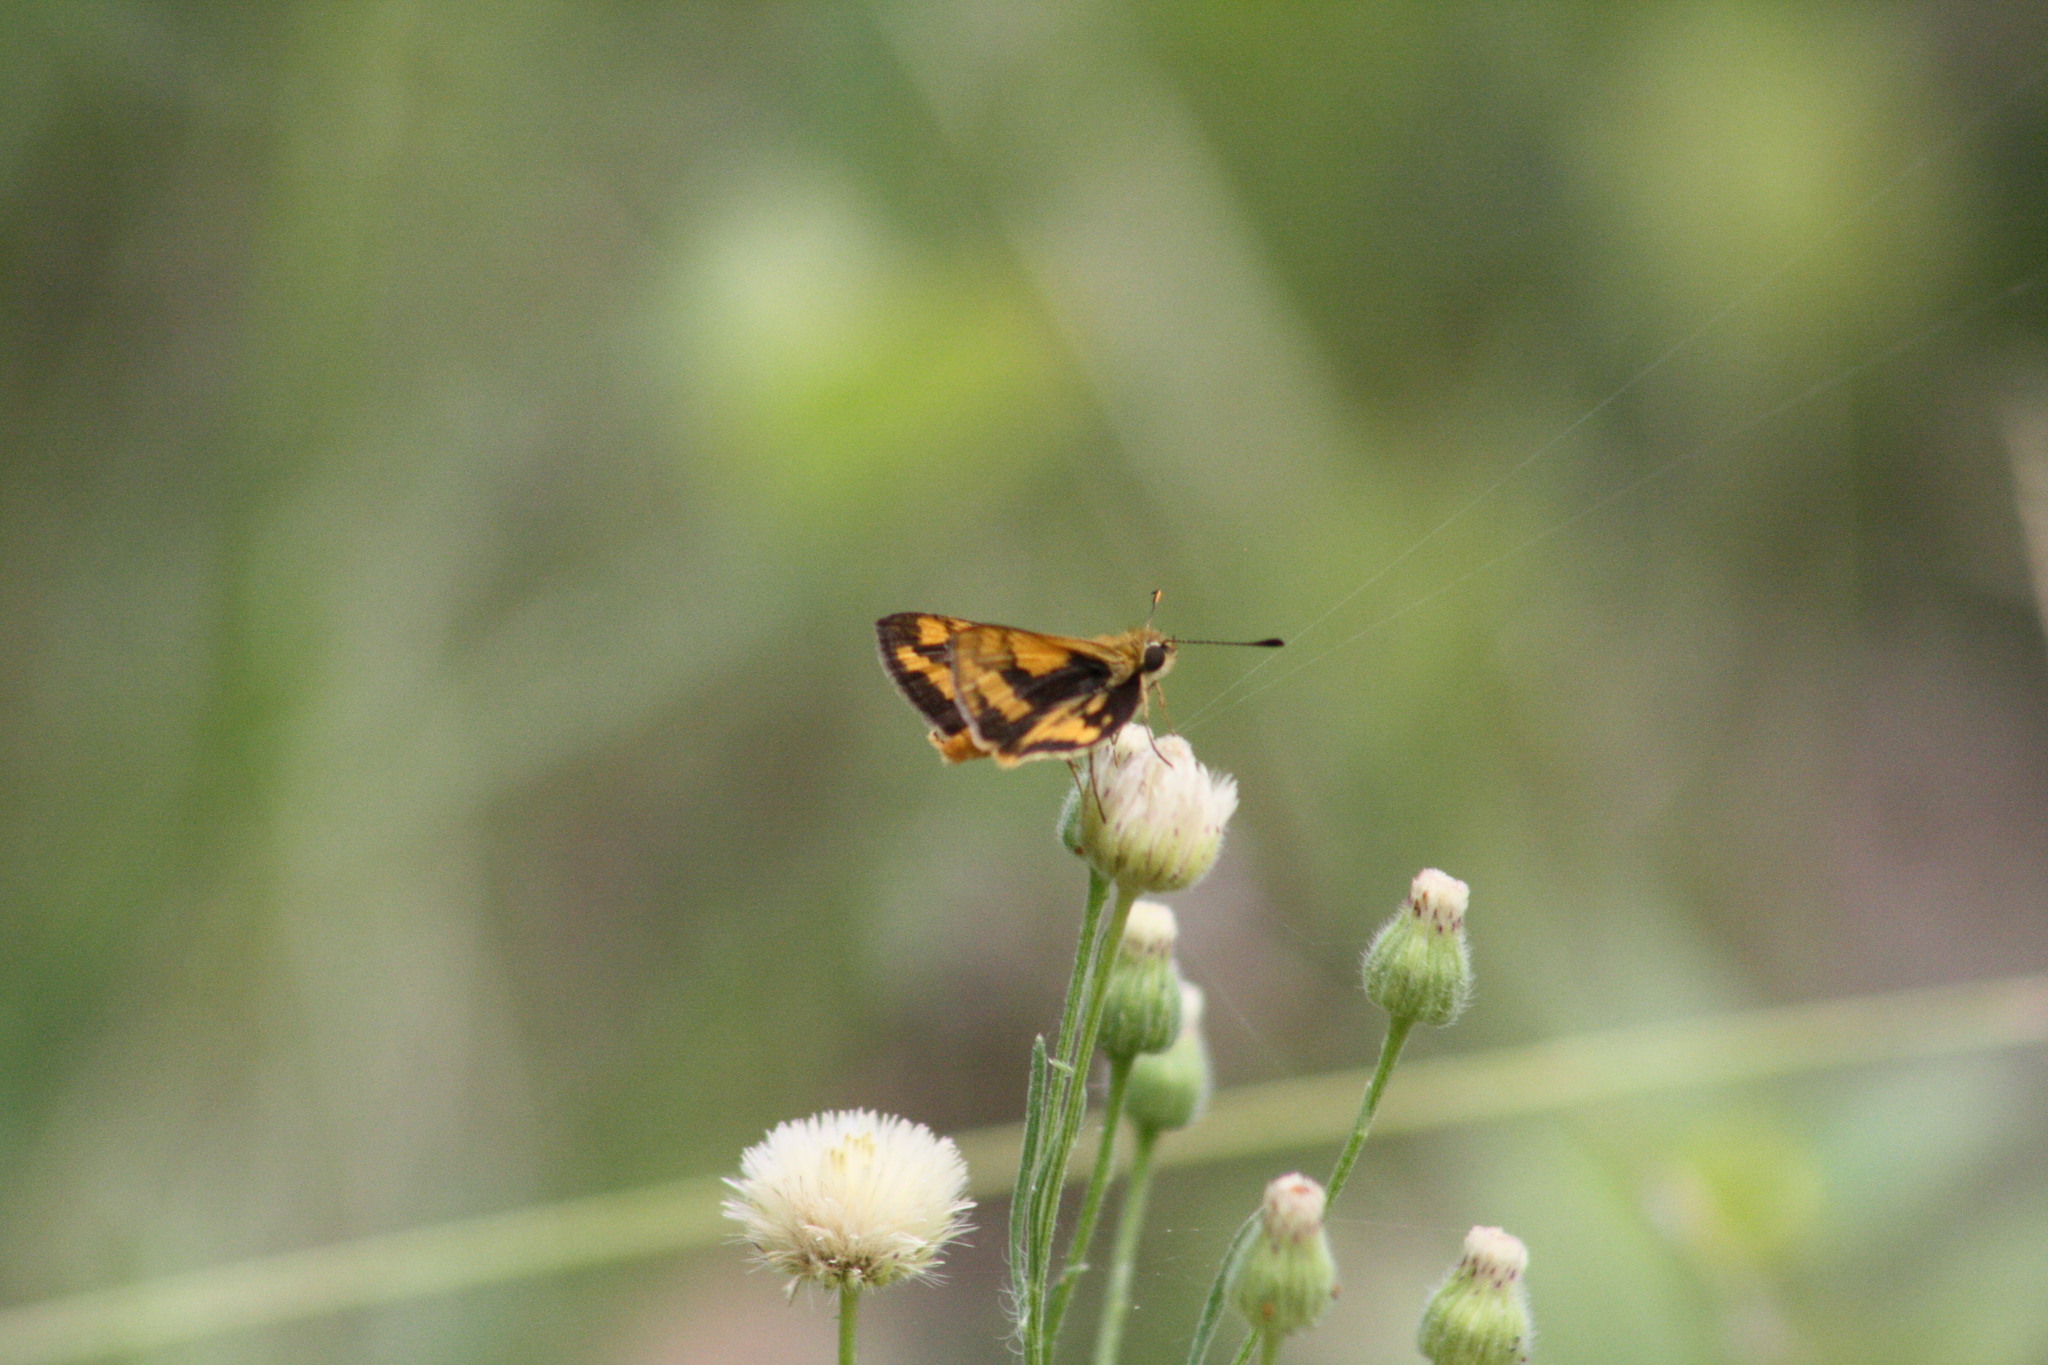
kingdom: Animalia
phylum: Arthropoda
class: Insecta
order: Lepidoptera
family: Hesperiidae
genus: Ocybadistes
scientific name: Ocybadistes walkeri
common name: Yellow-banded dart
